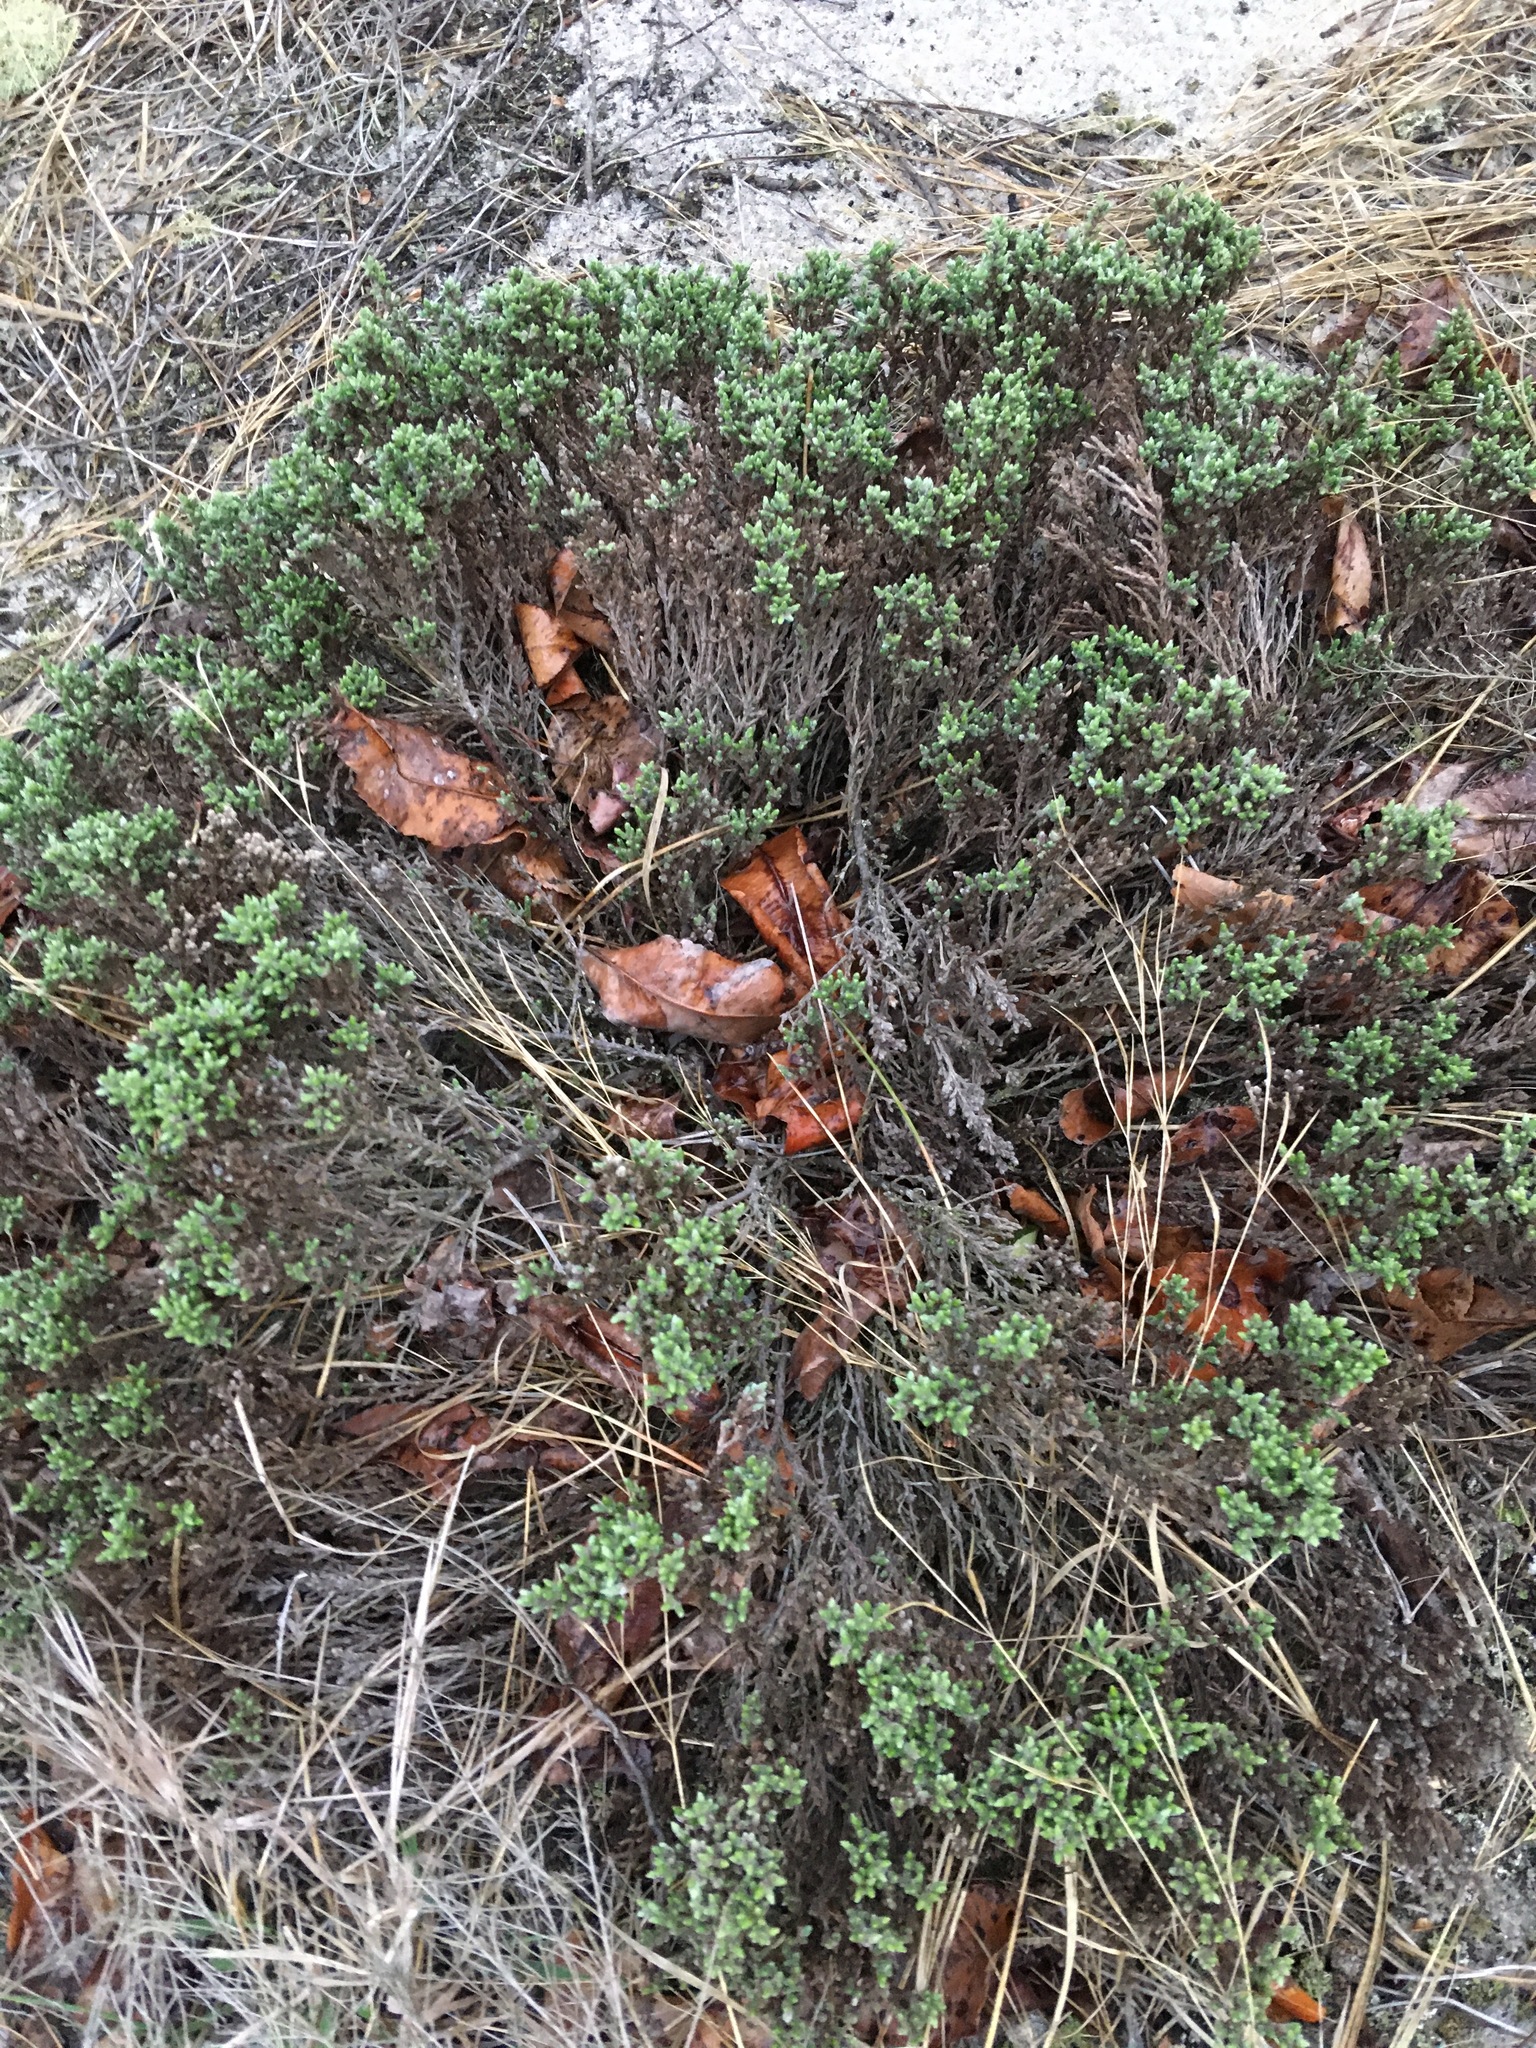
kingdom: Plantae
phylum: Tracheophyta
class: Magnoliopsida
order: Malvales
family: Cistaceae
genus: Hudsonia
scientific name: Hudsonia tomentosa
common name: Beach-heath
